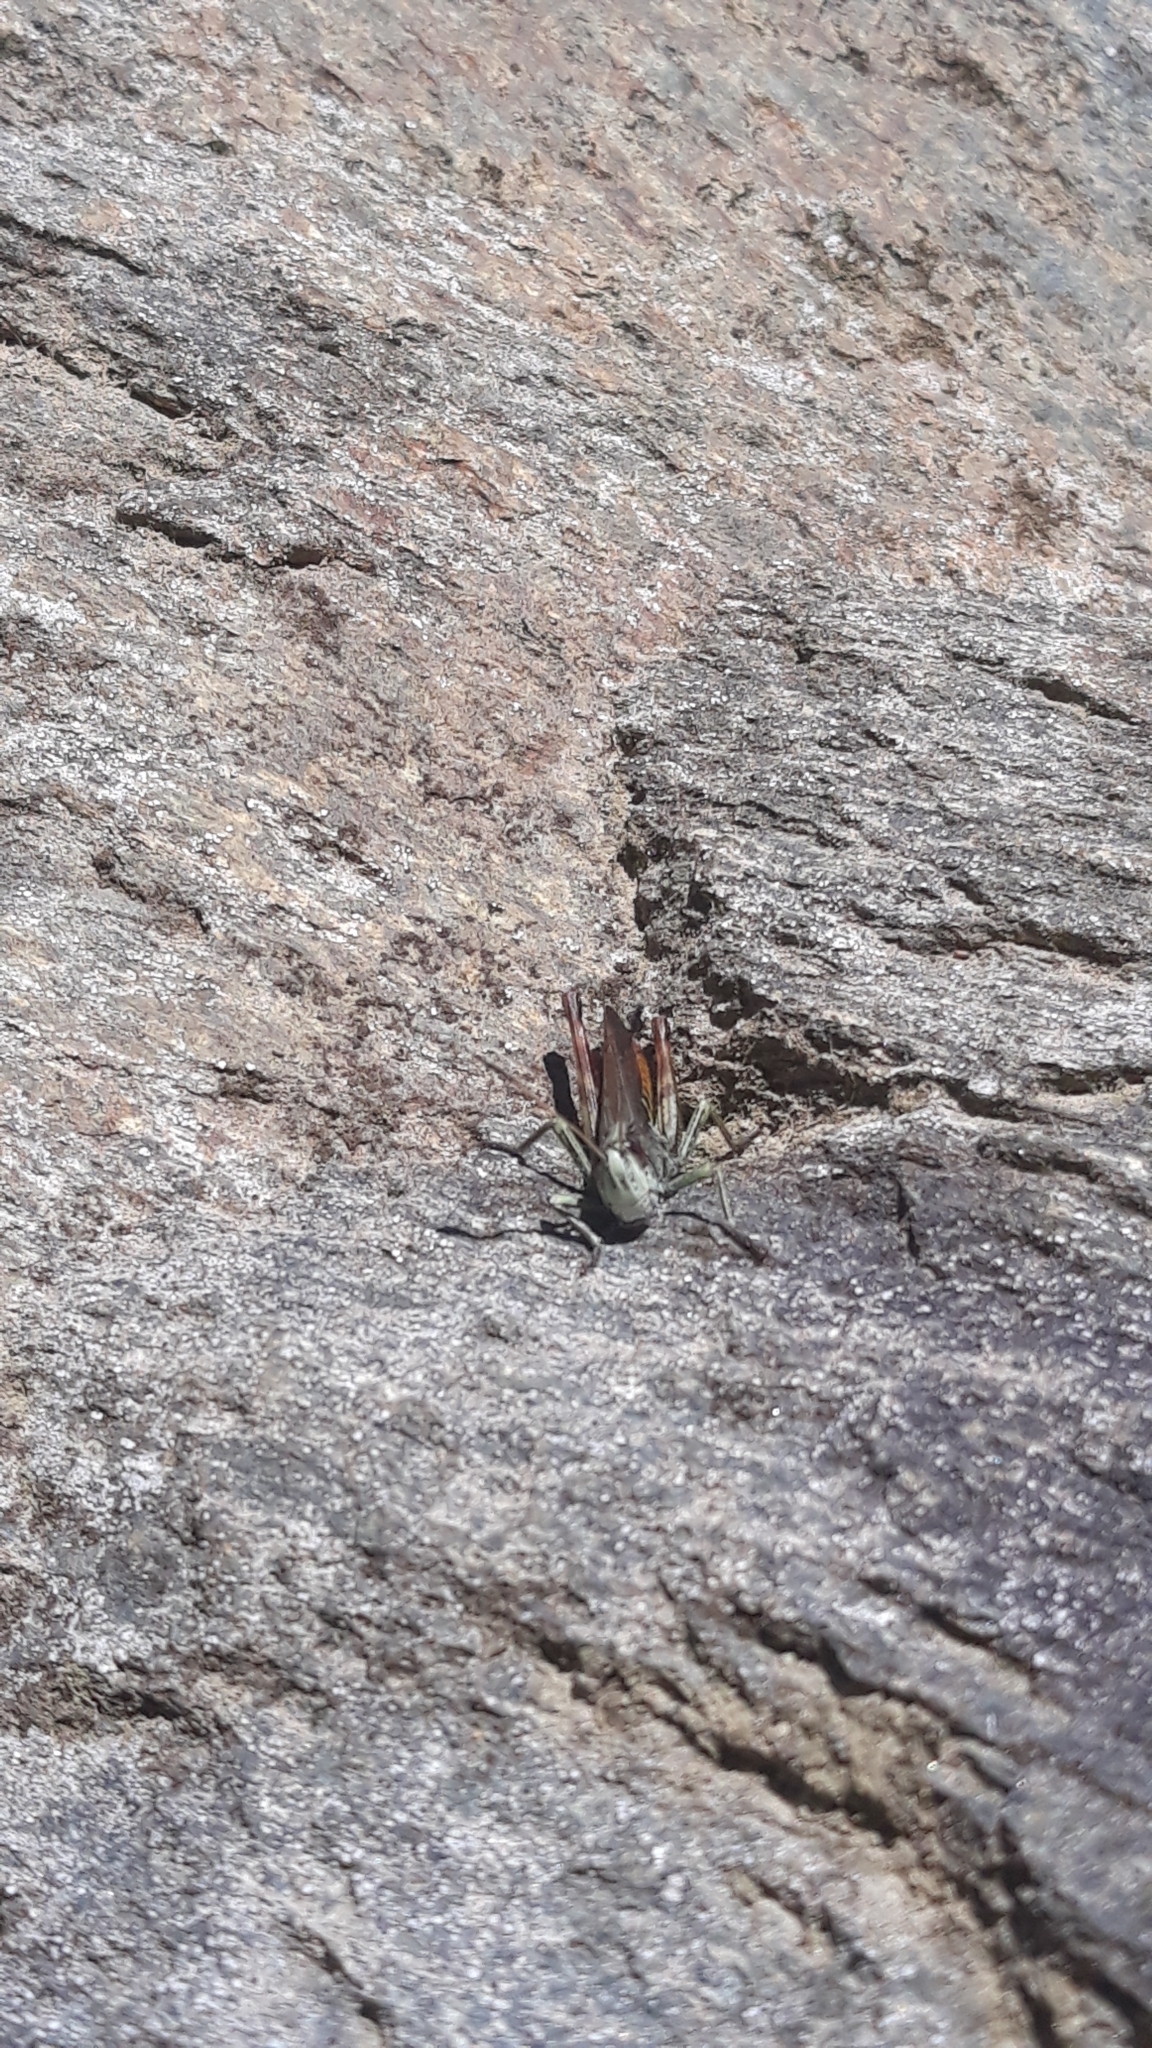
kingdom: Animalia
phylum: Arthropoda
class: Insecta
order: Orthoptera
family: Acrididae
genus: Gomphocerippus
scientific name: Gomphocerippus rufus
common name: Rufous grasshopper
